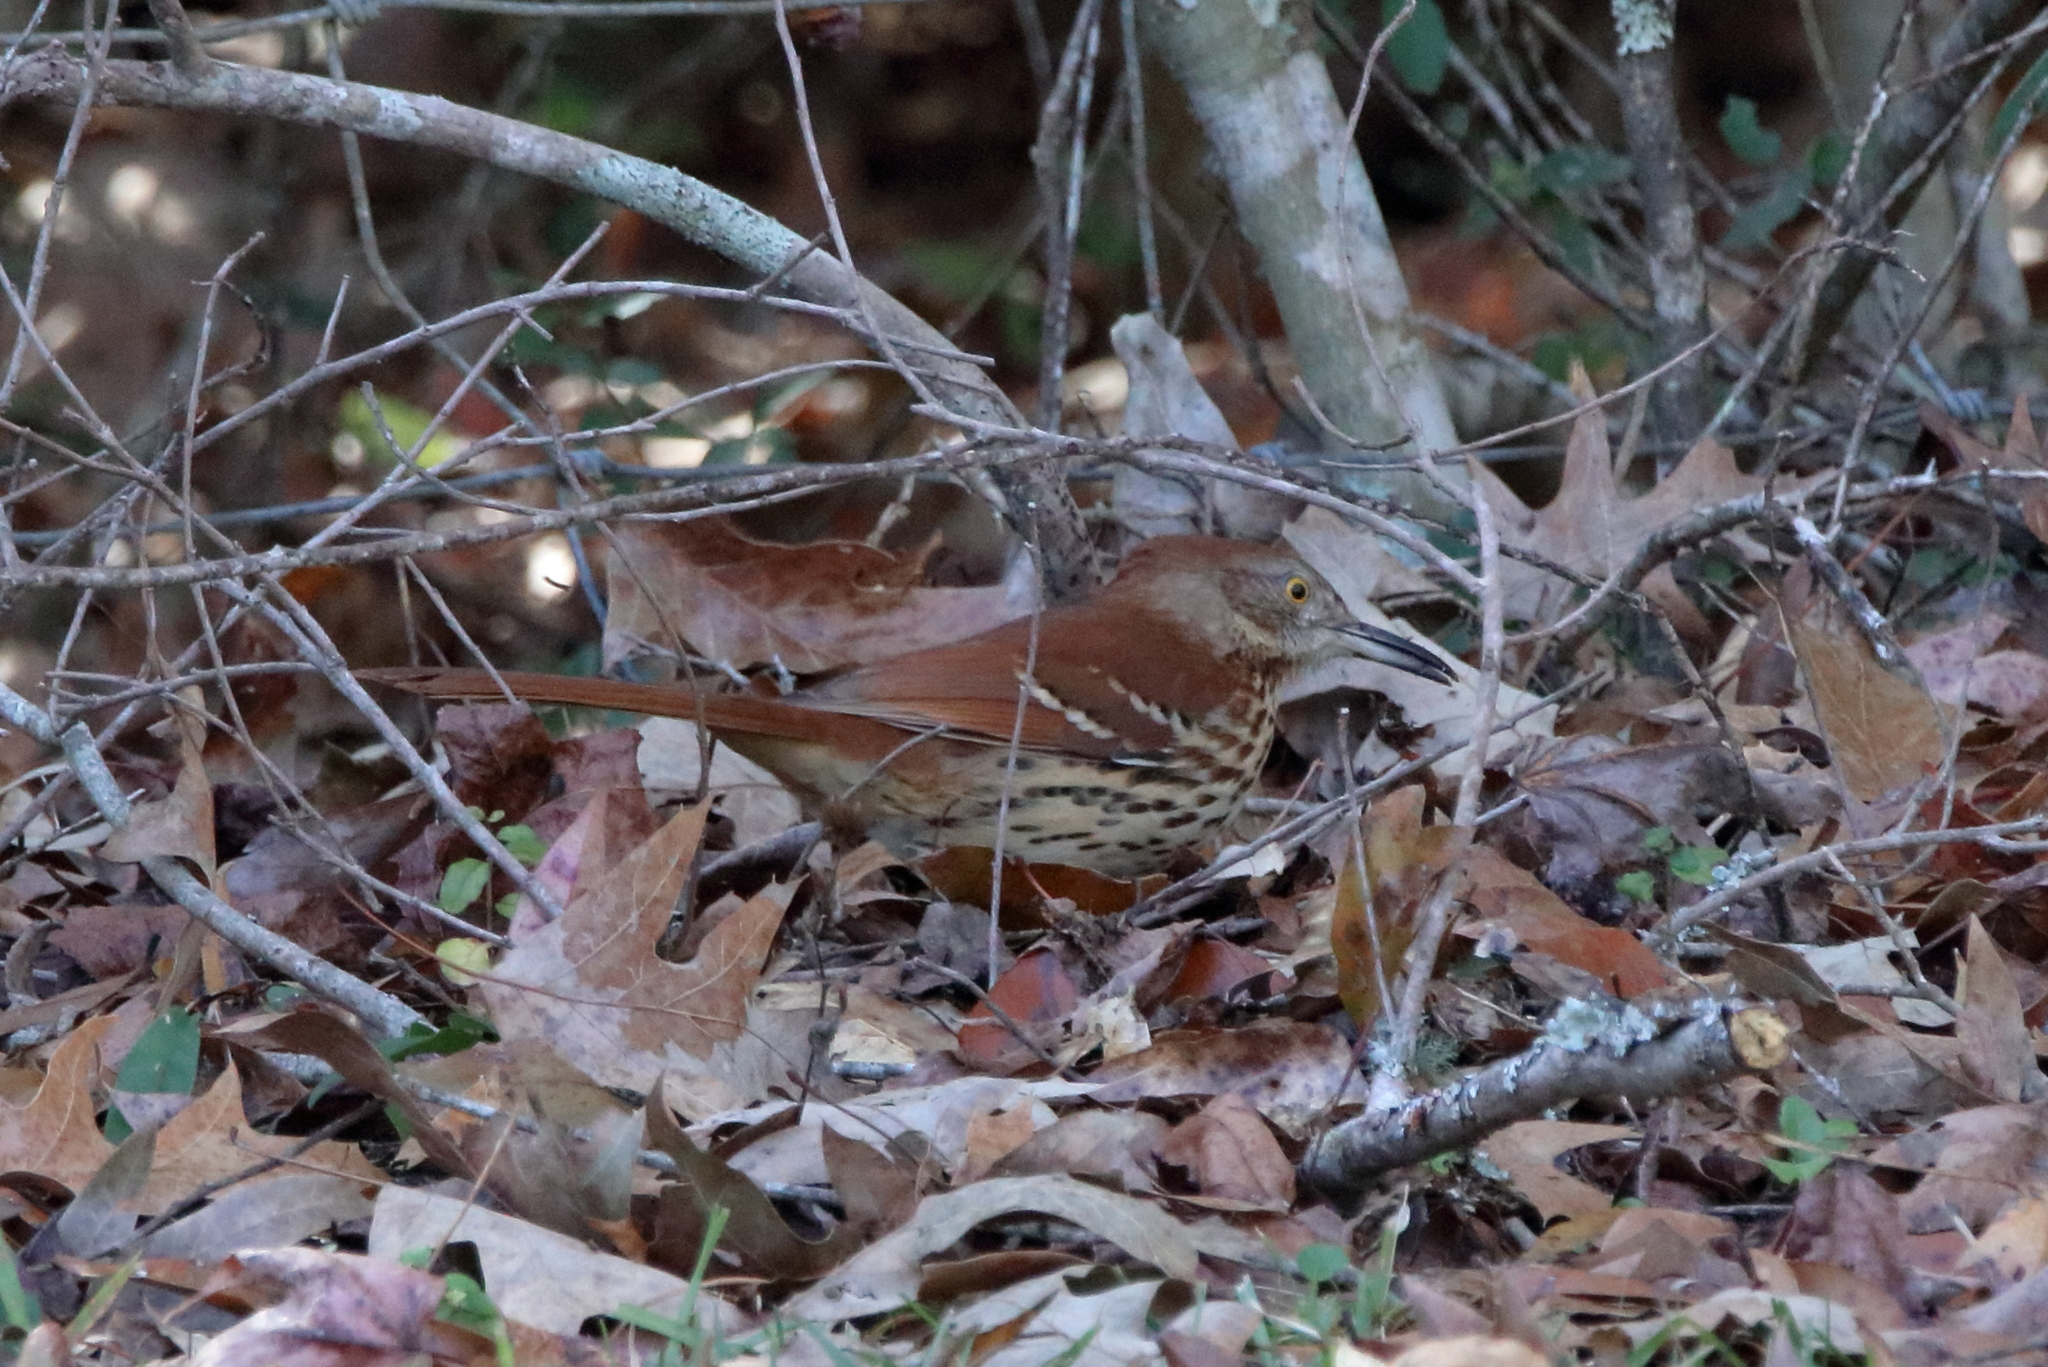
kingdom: Animalia
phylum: Chordata
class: Aves
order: Passeriformes
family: Mimidae
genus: Toxostoma
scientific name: Toxostoma rufum
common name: Brown thrasher
